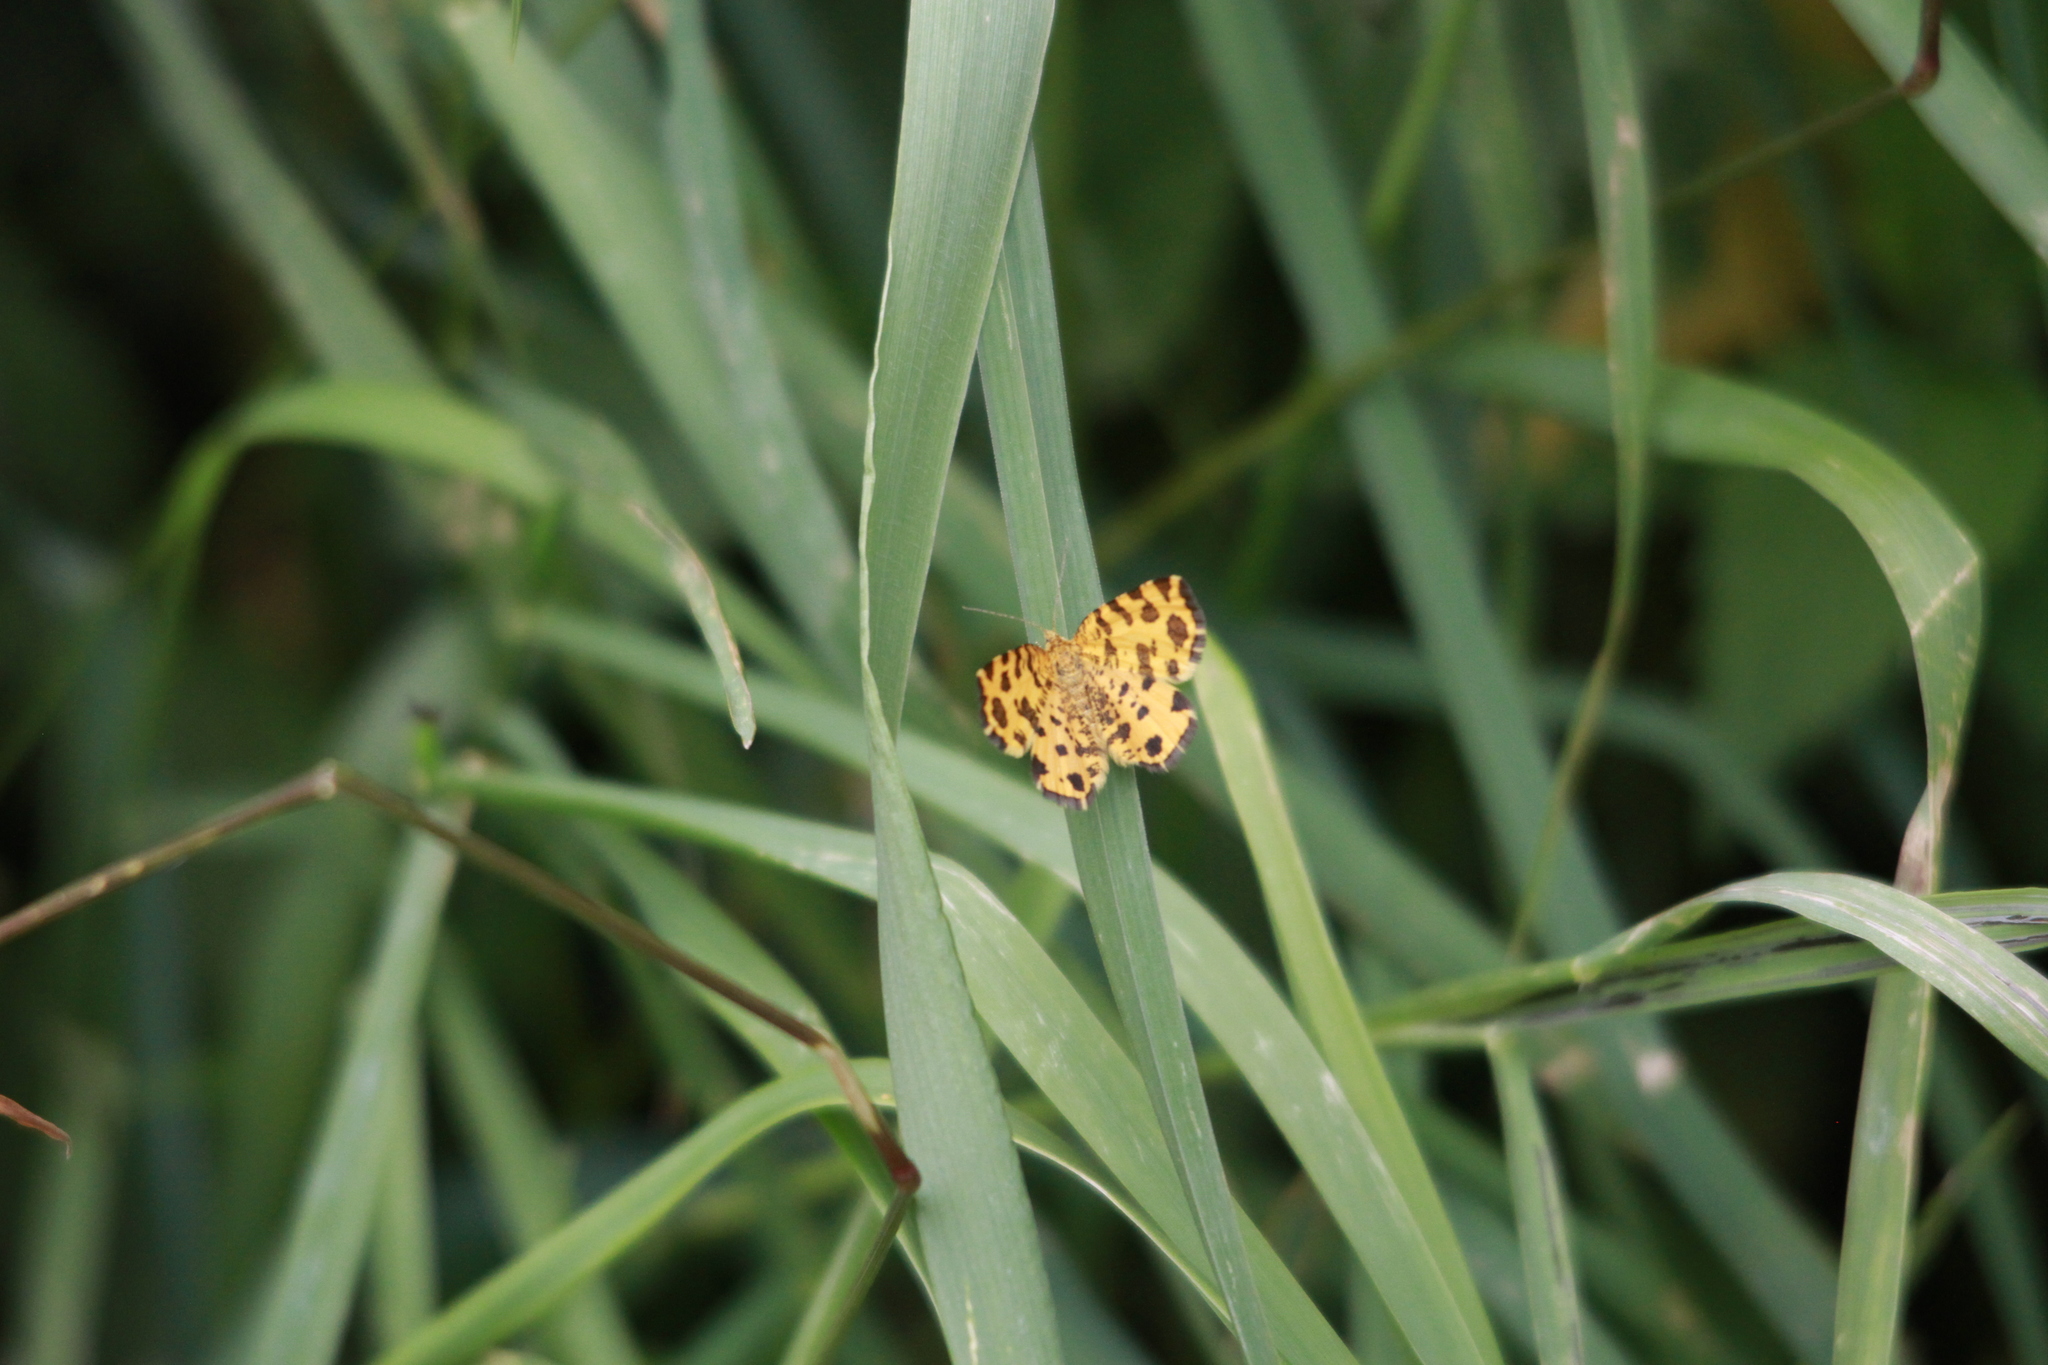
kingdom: Animalia
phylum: Arthropoda
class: Insecta
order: Lepidoptera
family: Geometridae
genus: Pseudopanthera
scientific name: Pseudopanthera macularia
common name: Speckled yellow
